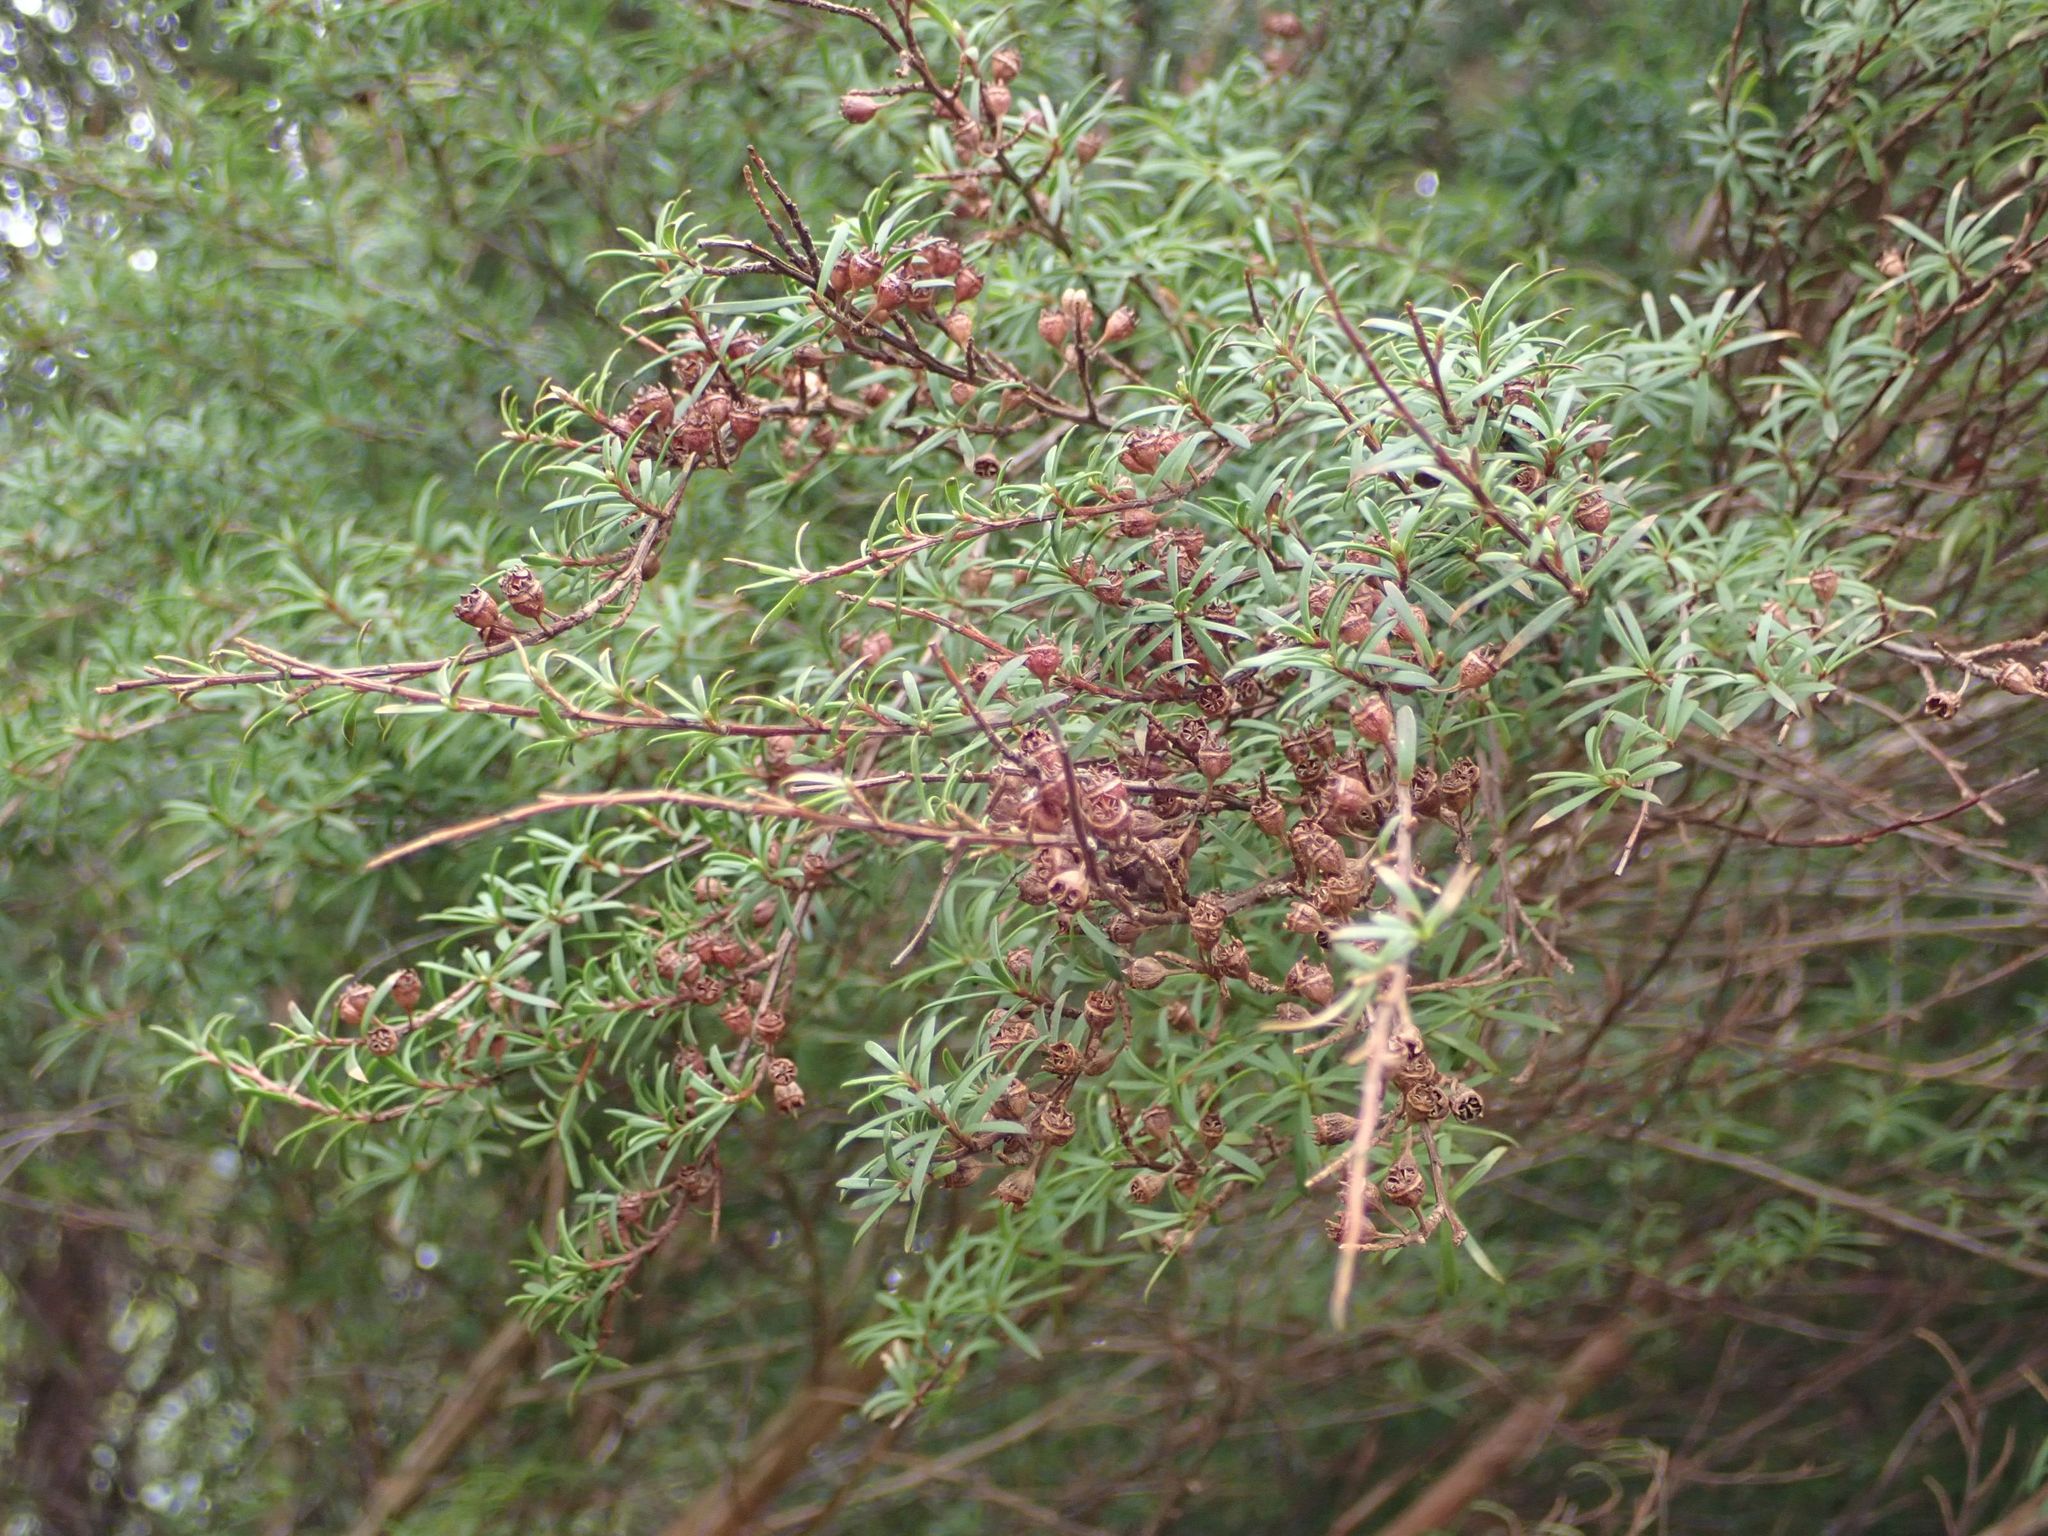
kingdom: Plantae
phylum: Tracheophyta
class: Magnoliopsida
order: Myrtales
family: Myrtaceae
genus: Kunzea
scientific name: Kunzea robusta
